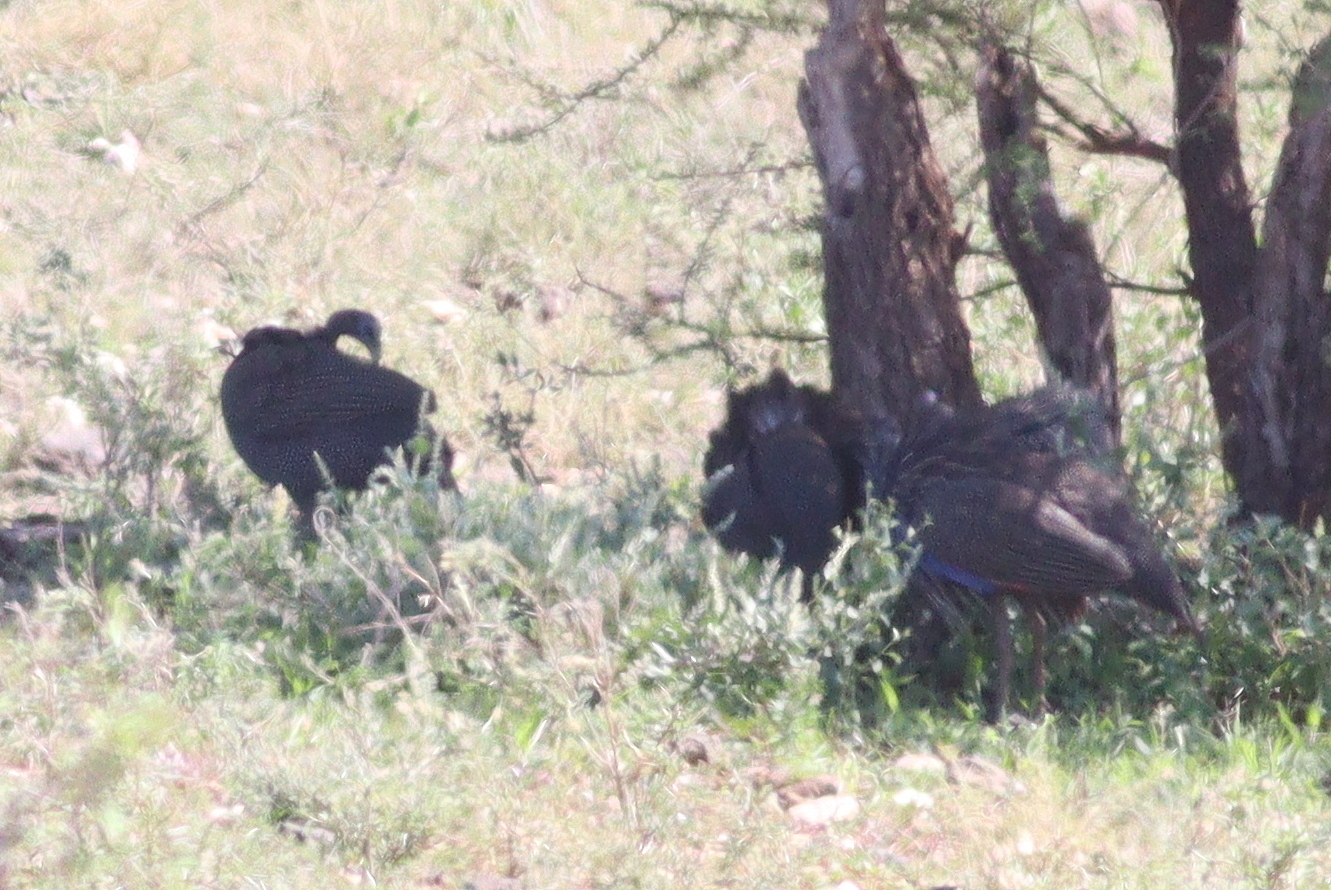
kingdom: Animalia
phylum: Chordata
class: Aves
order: Galliformes
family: Numididae
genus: Acryllium
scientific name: Acryllium vulturinum
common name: Vulturine guineafowl
